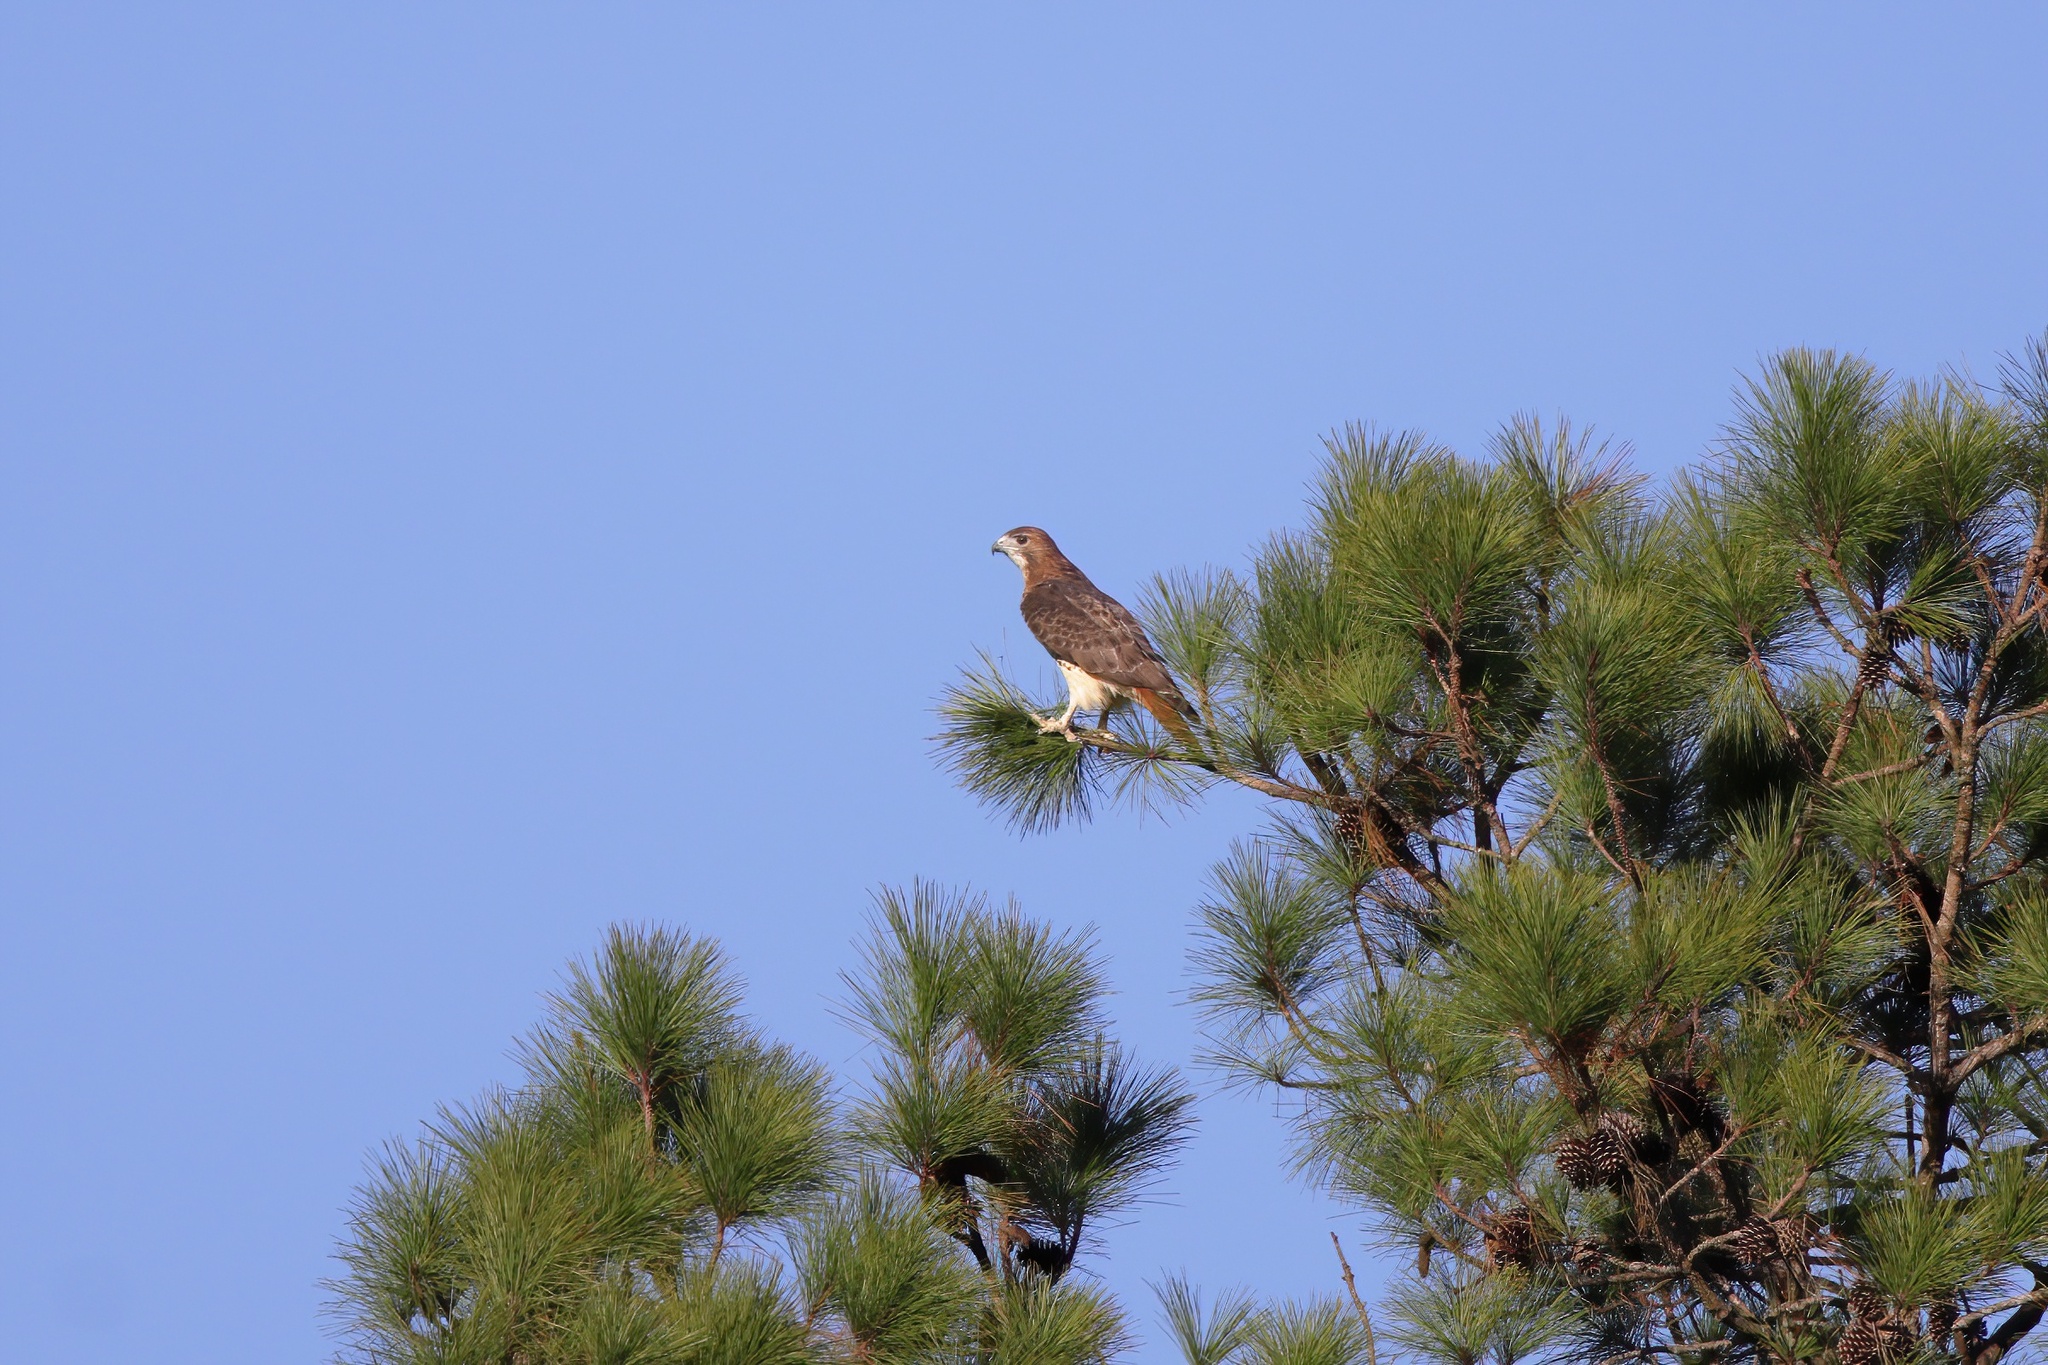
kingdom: Animalia
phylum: Chordata
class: Aves
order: Accipitriformes
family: Accipitridae
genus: Buteo
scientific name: Buteo jamaicensis
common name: Red-tailed hawk
